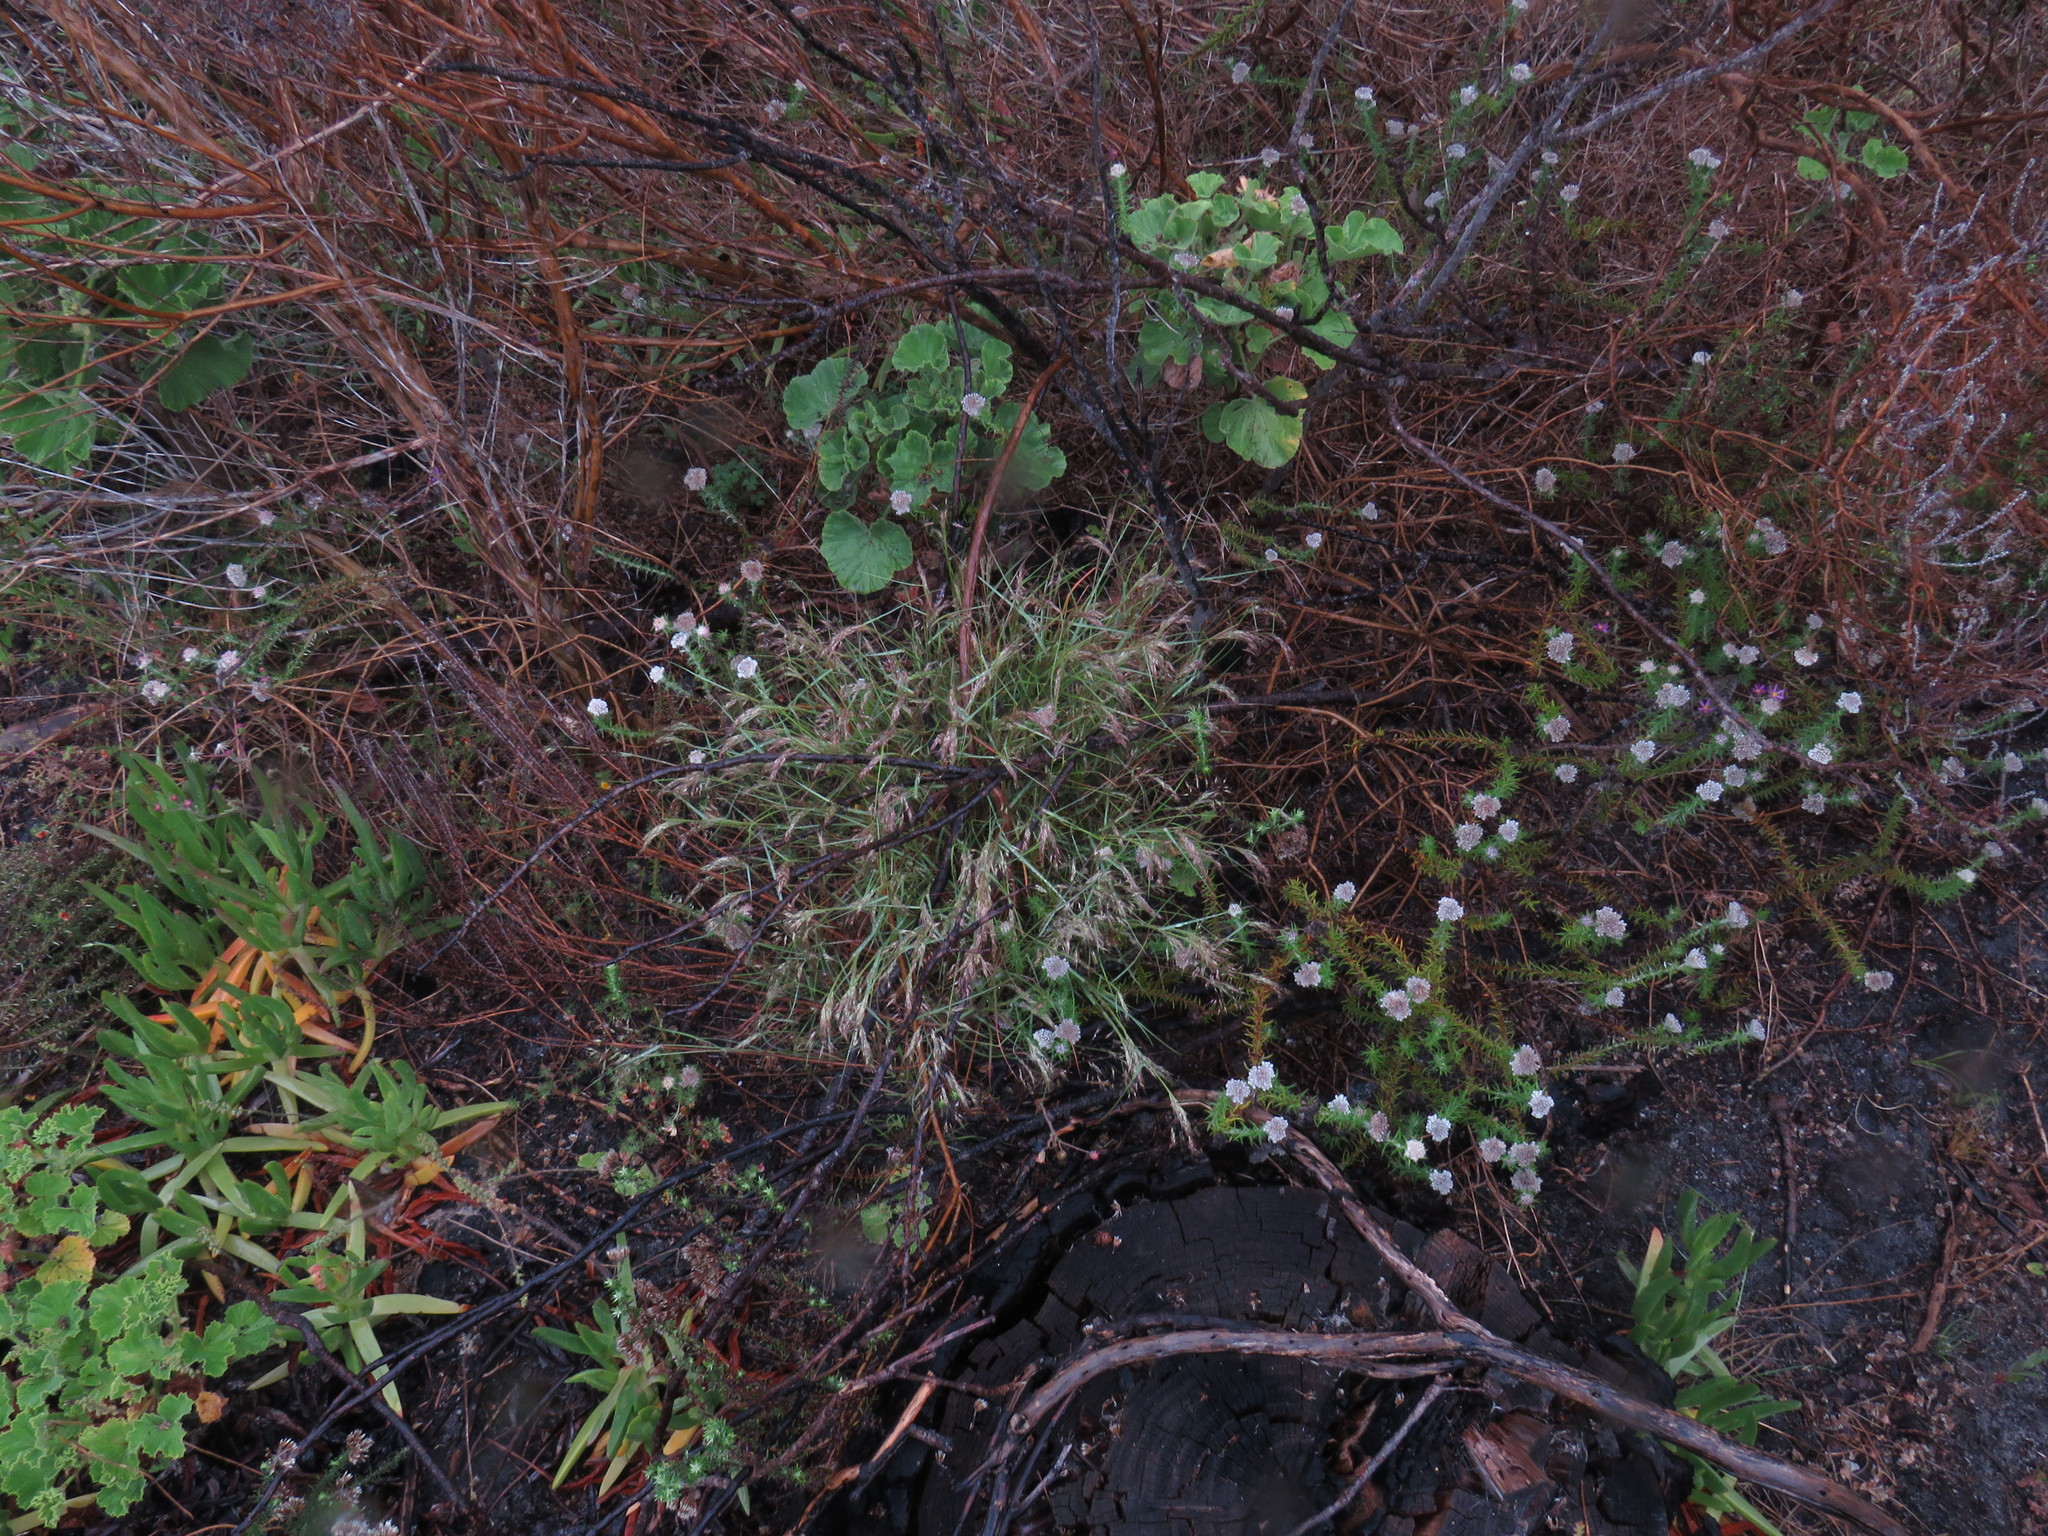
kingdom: Plantae
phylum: Tracheophyta
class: Liliopsida
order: Poales
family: Poaceae
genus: Pentameris
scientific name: Pentameris airoides
